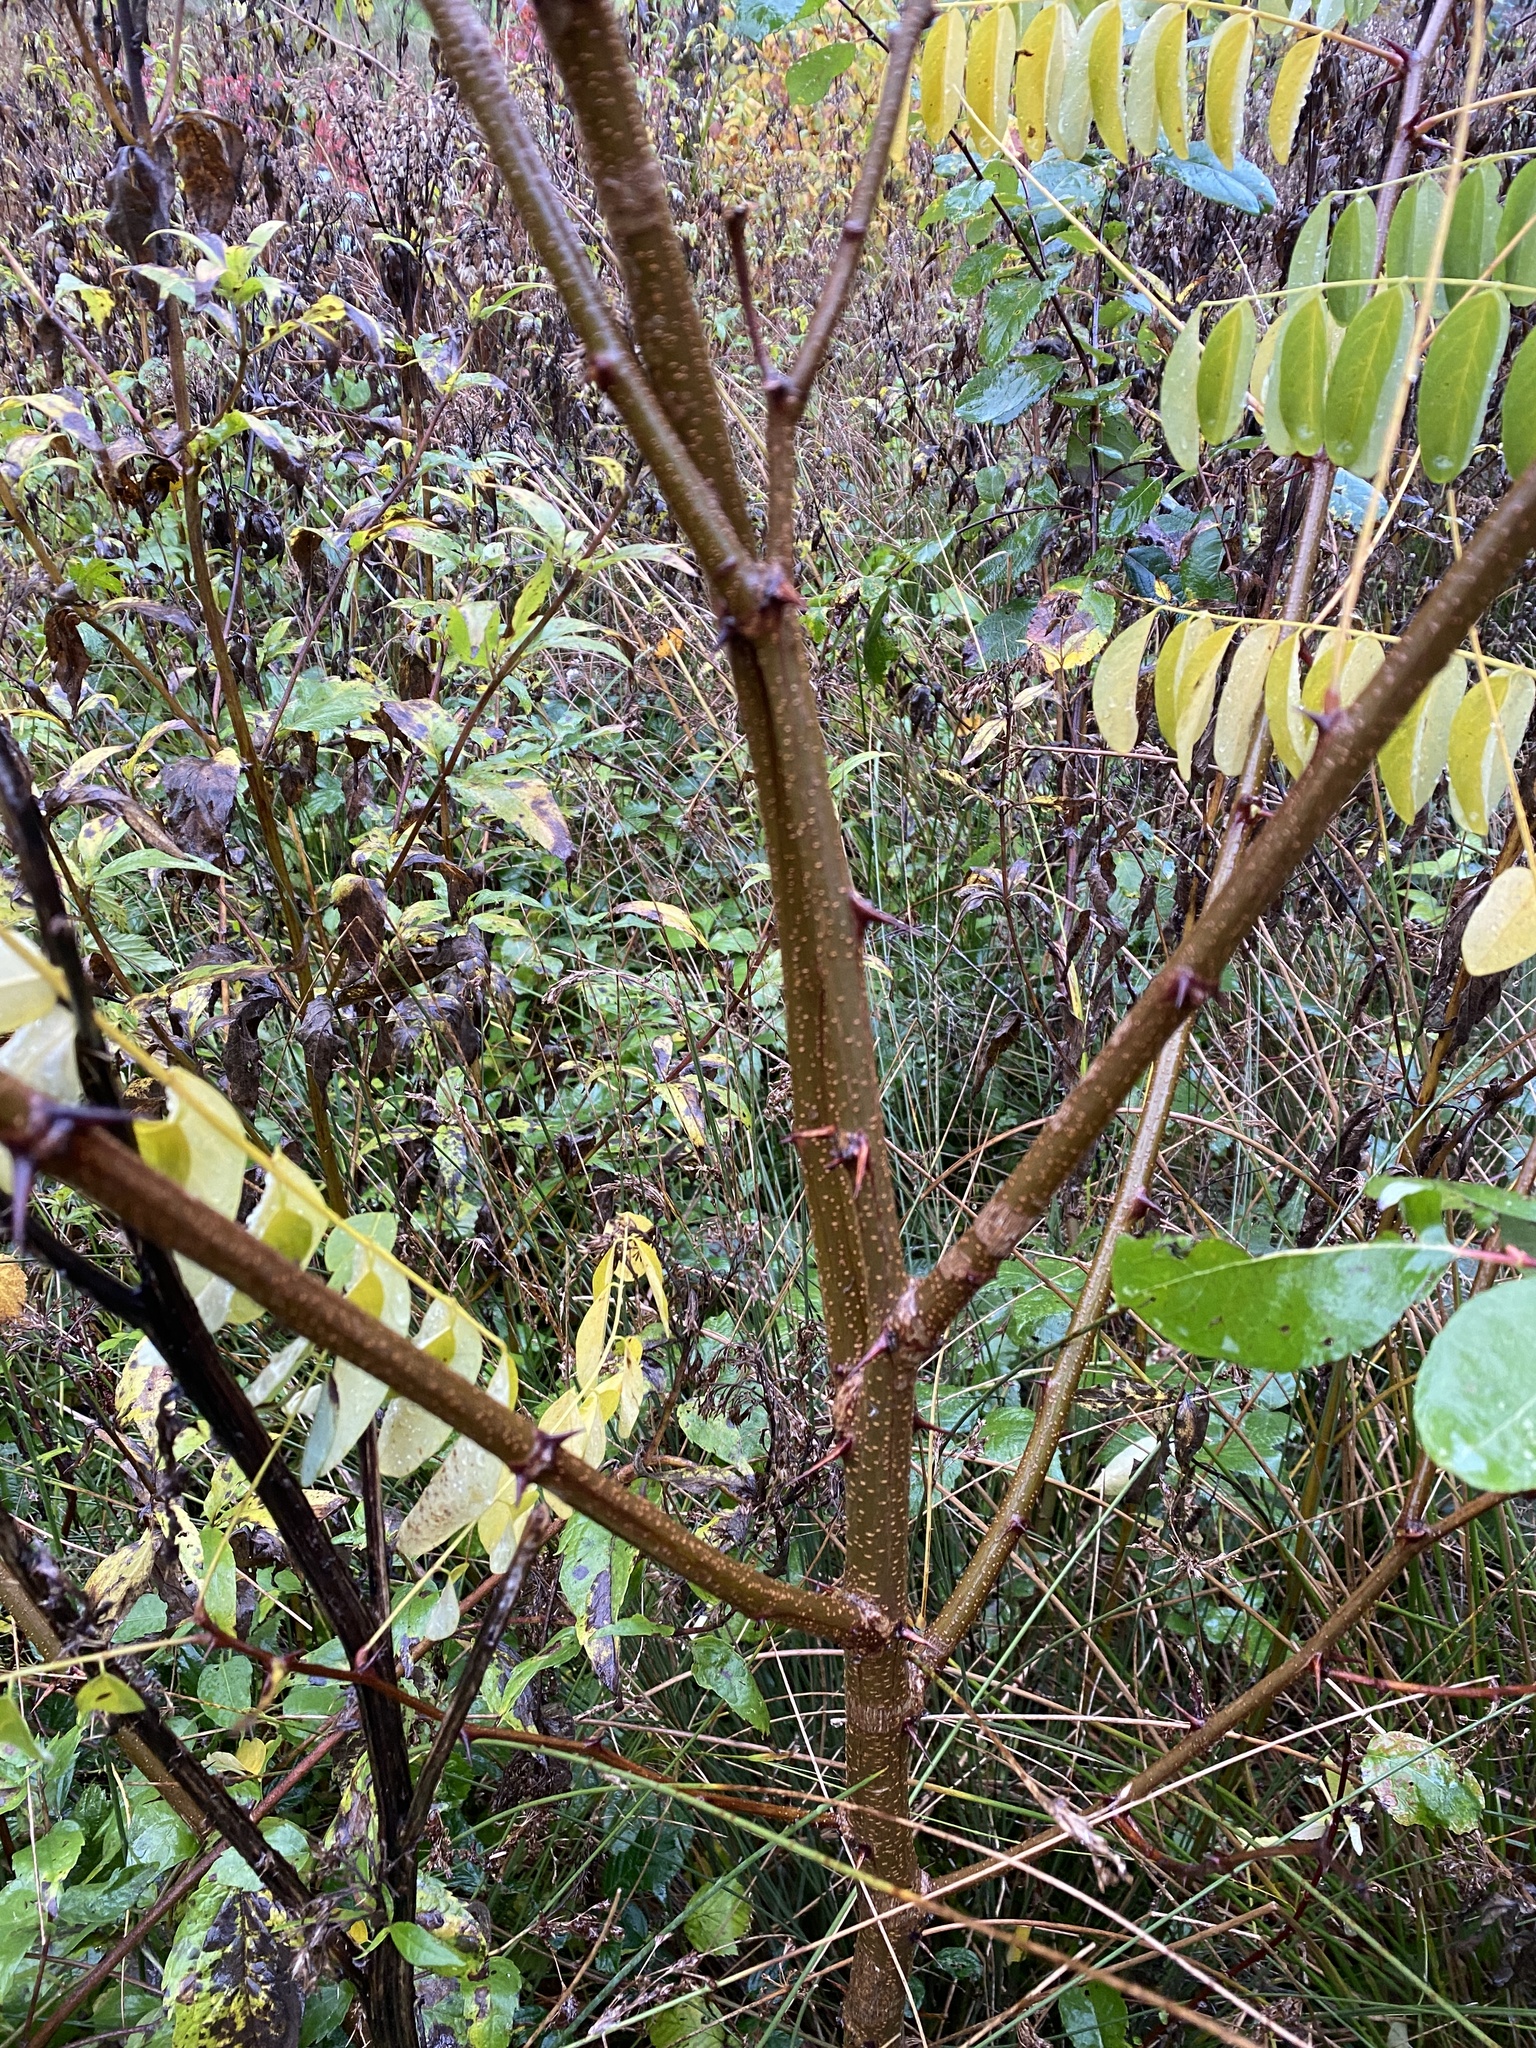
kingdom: Plantae
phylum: Tracheophyta
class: Magnoliopsida
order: Fabales
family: Fabaceae
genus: Robinia
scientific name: Robinia pseudoacacia
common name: Black locust
